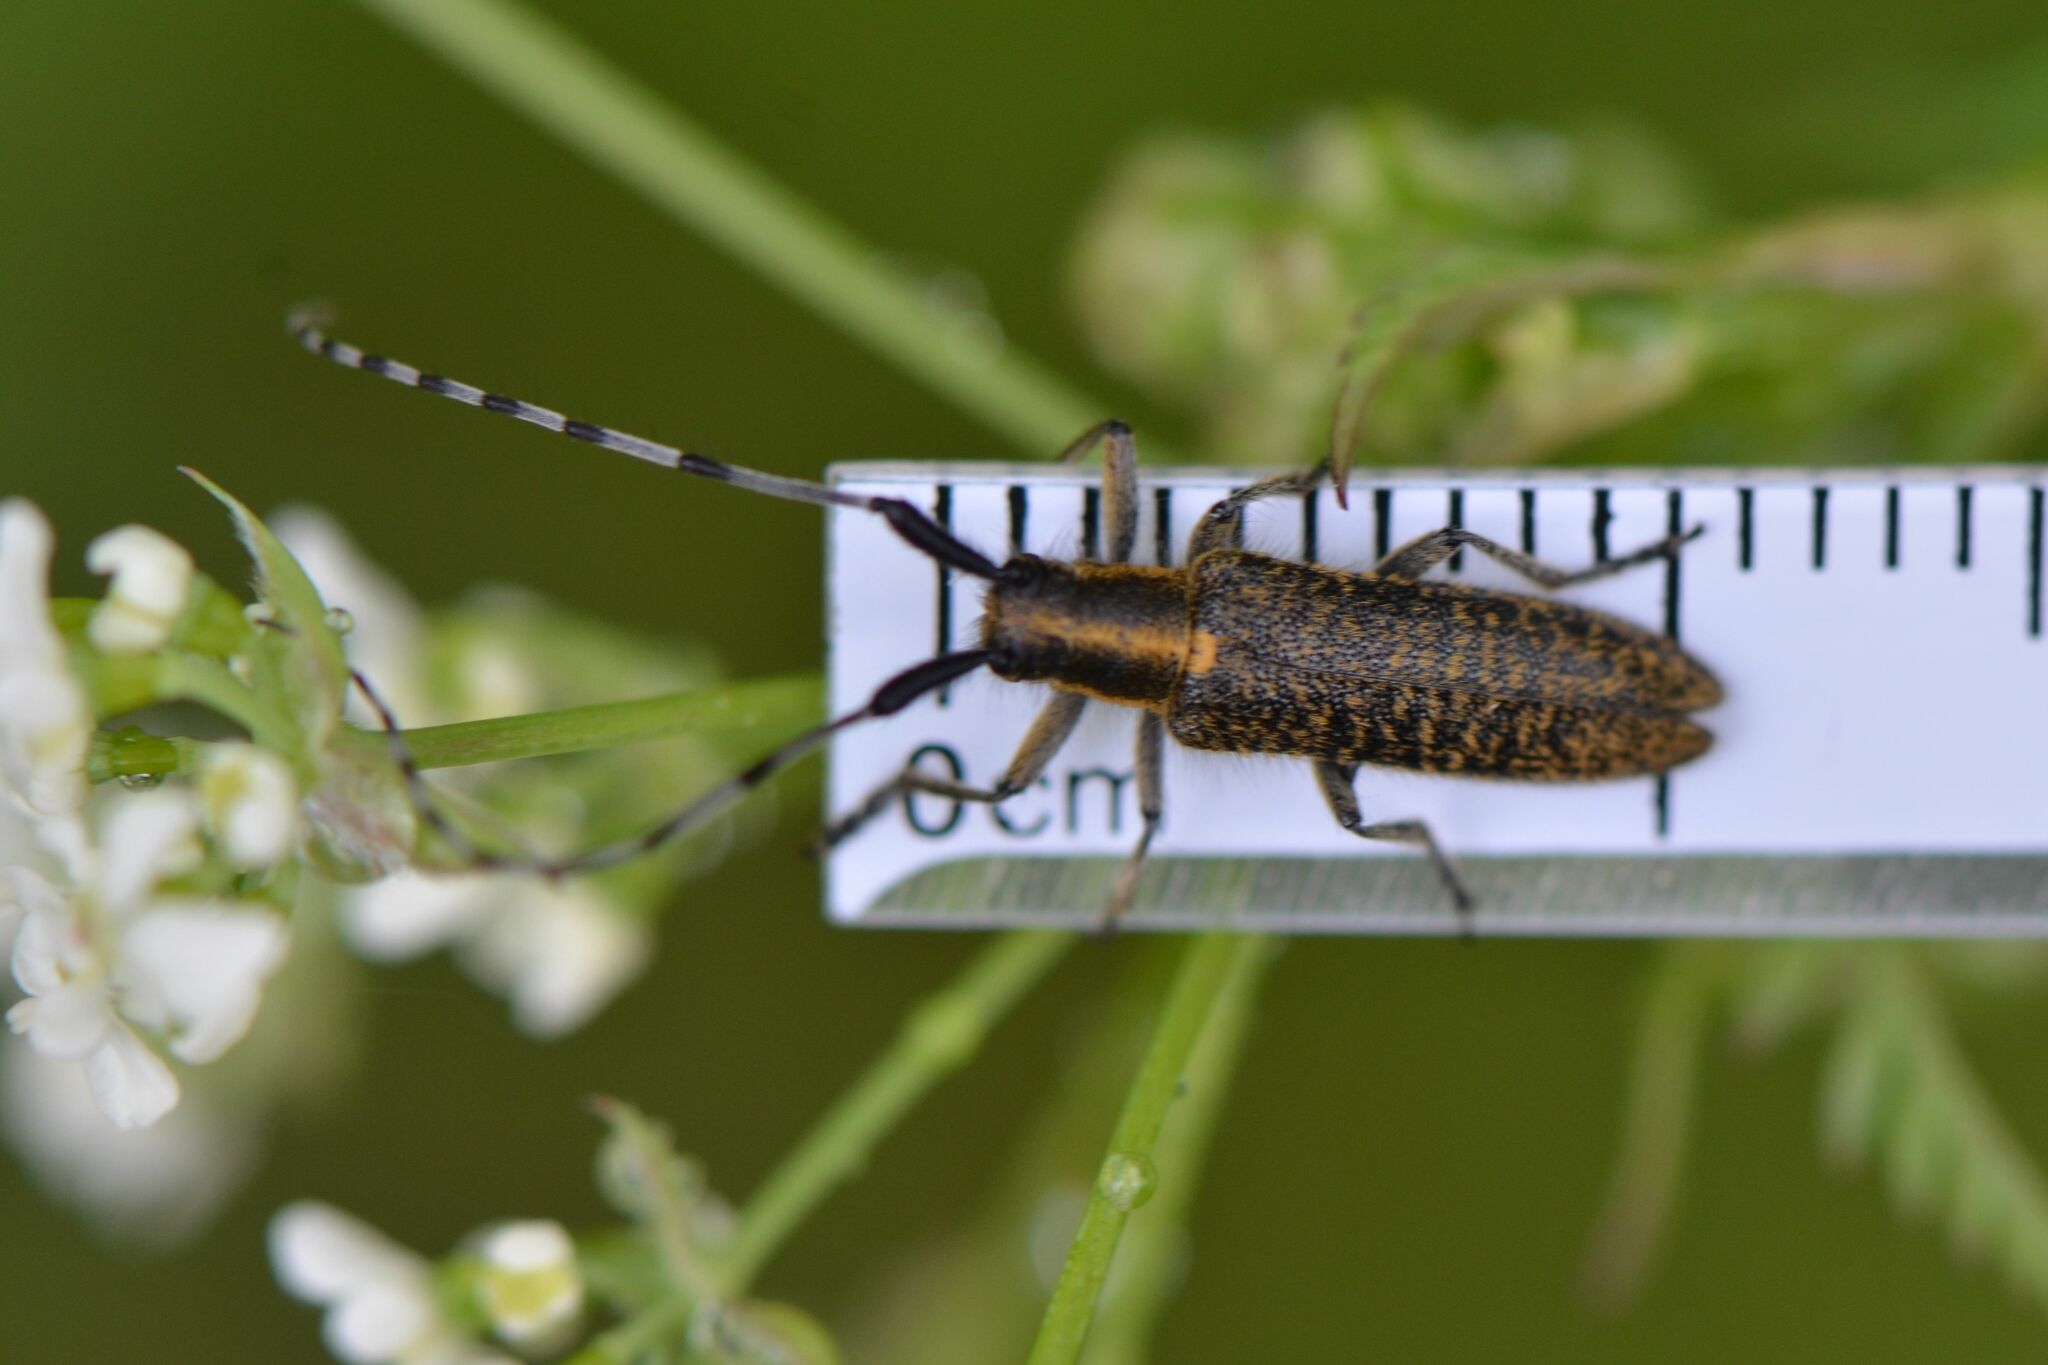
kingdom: Animalia
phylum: Arthropoda
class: Insecta
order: Coleoptera
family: Cerambycidae
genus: Agapanthia
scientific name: Agapanthia villosoviridescens
